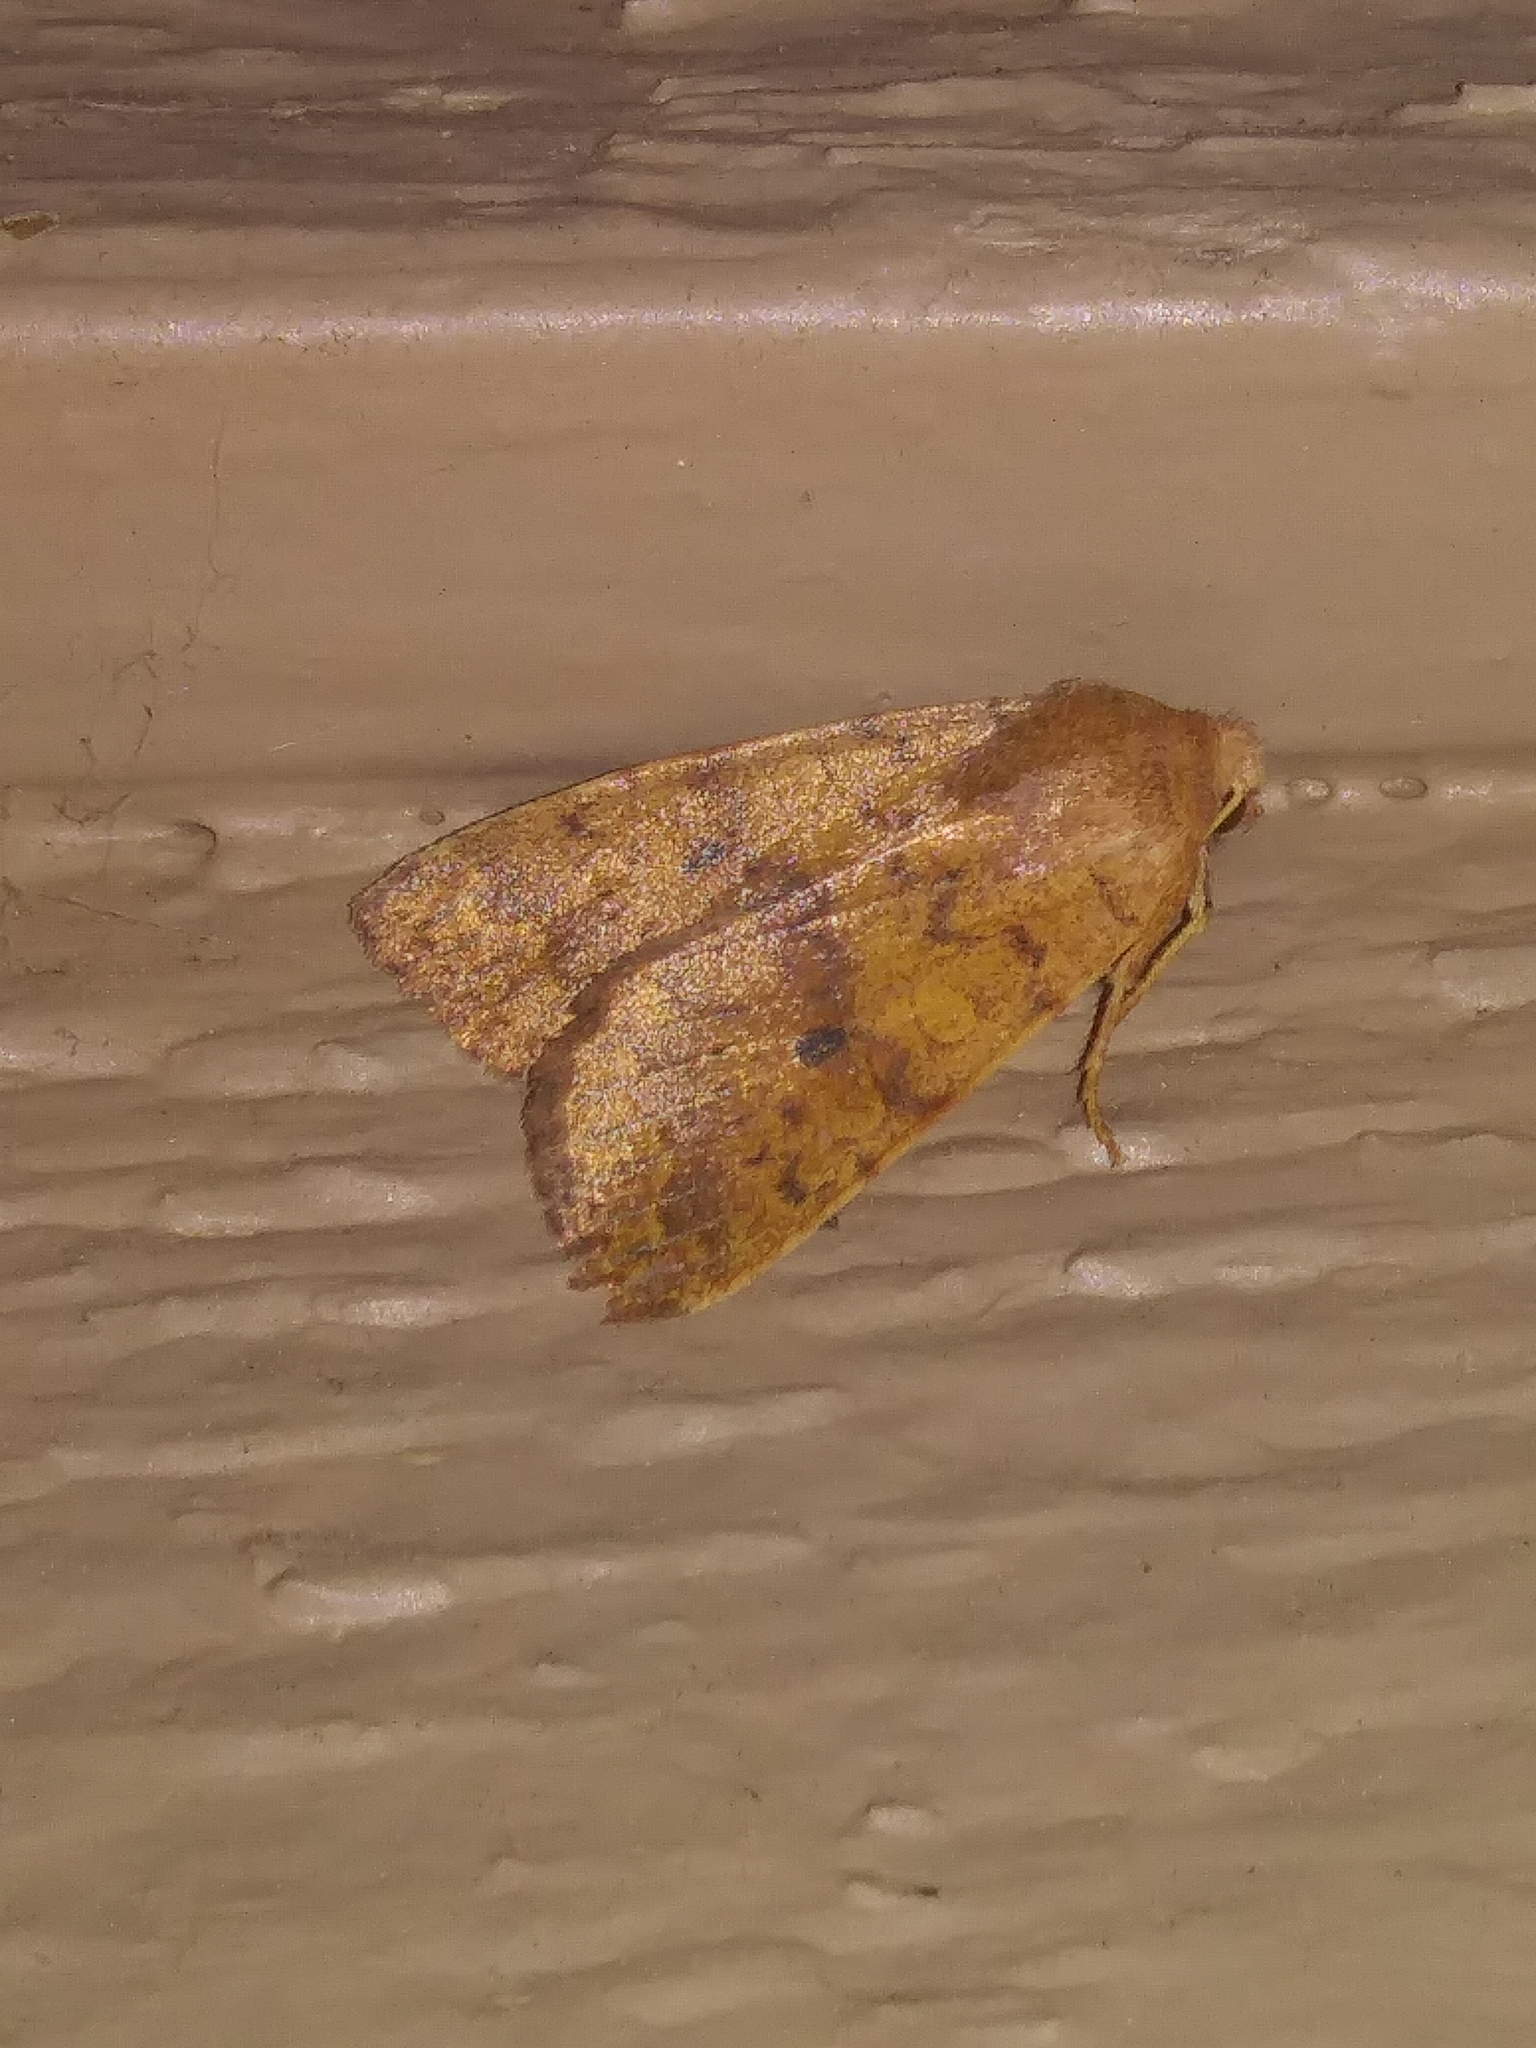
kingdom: Animalia
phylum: Arthropoda
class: Insecta
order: Lepidoptera
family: Noctuidae
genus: Agrochola
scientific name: Agrochola bicolorago
